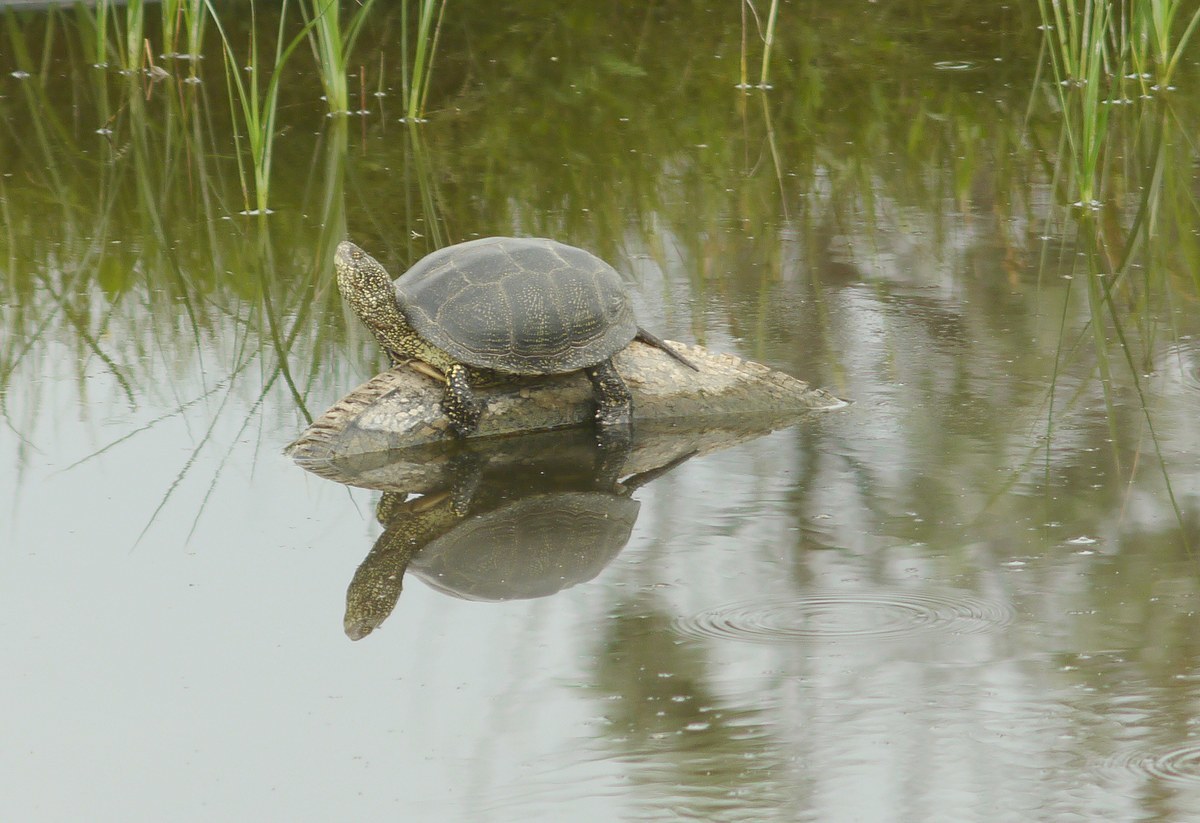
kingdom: Animalia
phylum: Chordata
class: Testudines
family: Emydidae
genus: Emys
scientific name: Emys orbicularis
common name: European pond turtle
